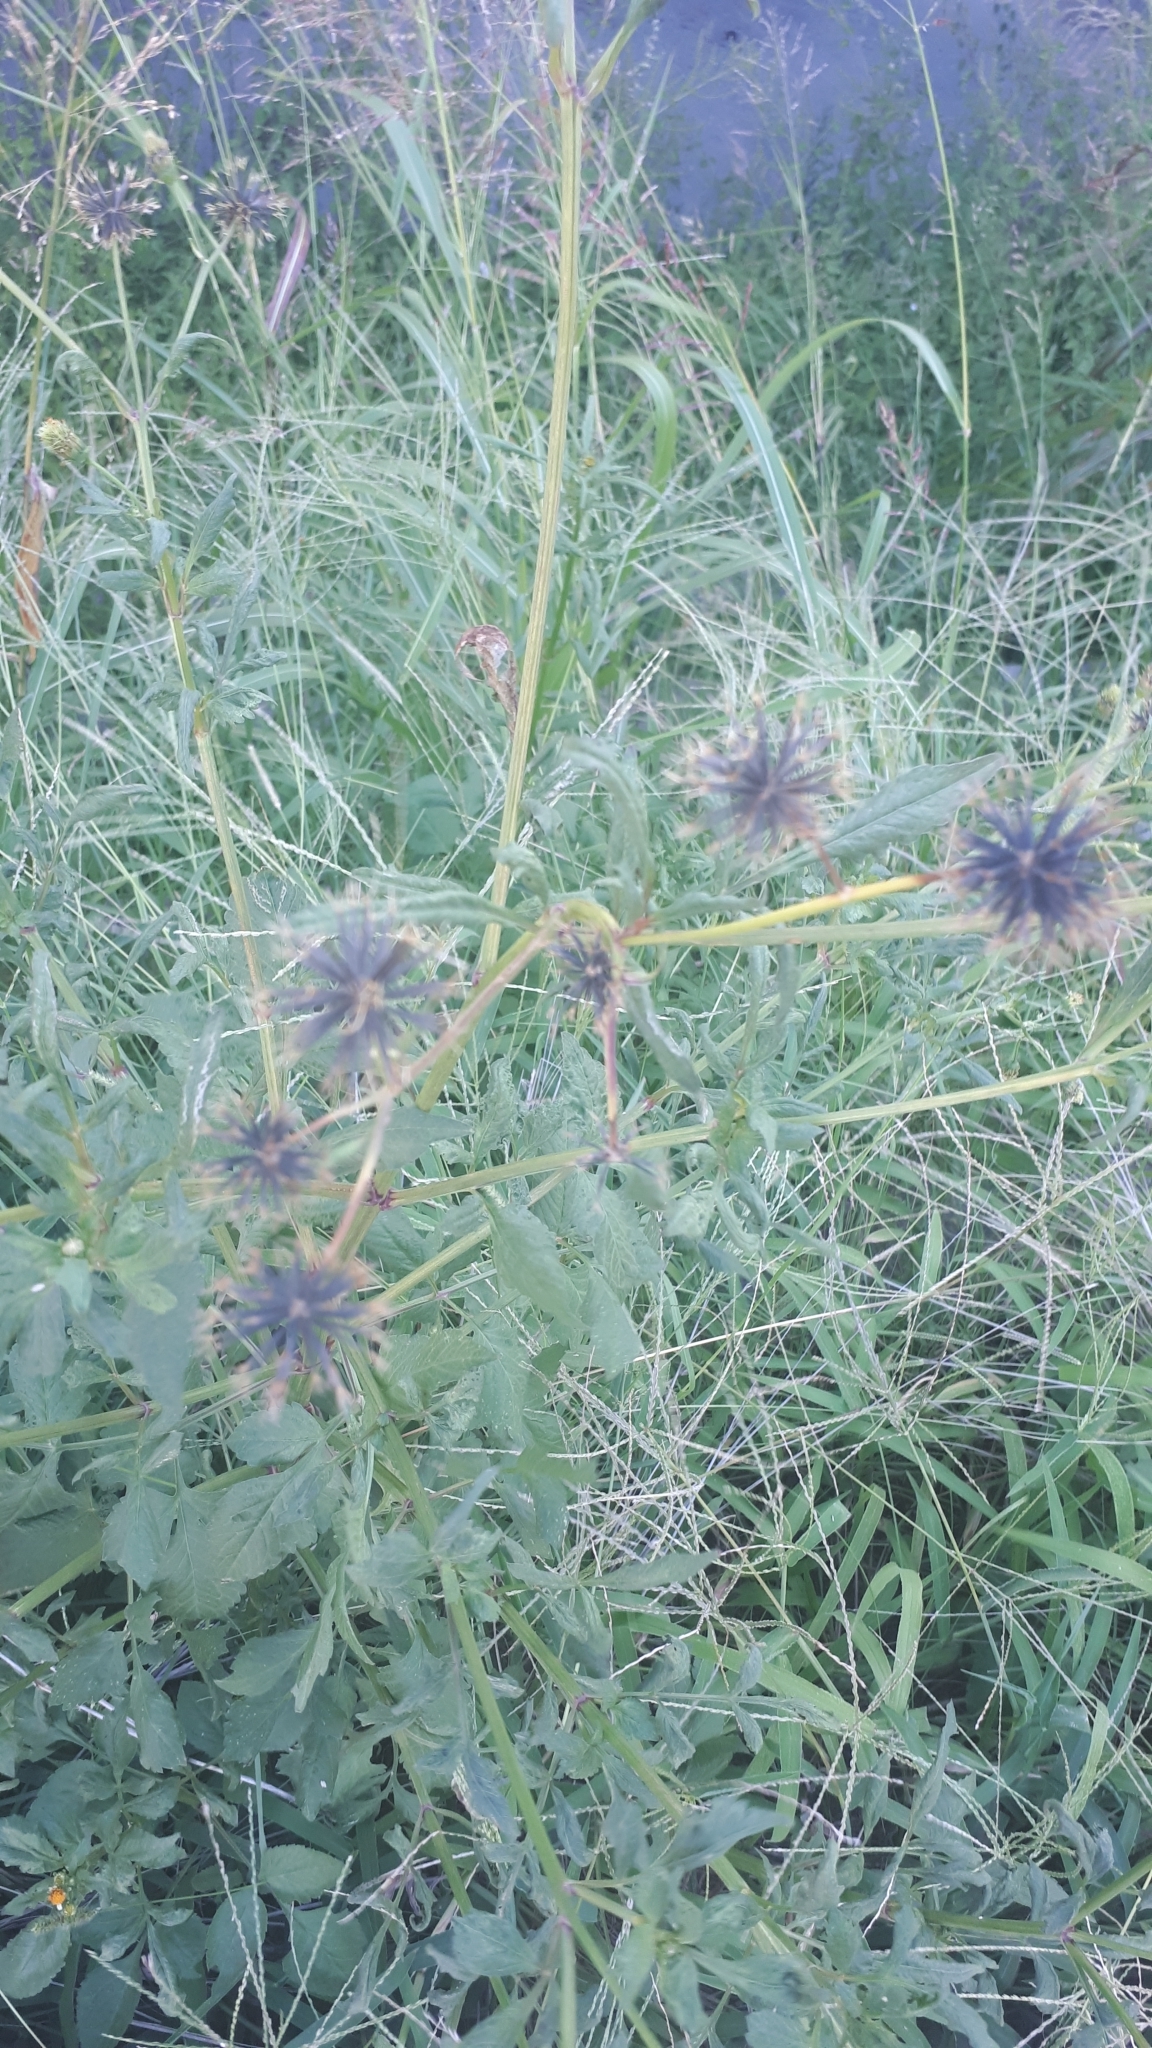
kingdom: Plantae
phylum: Tracheophyta
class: Magnoliopsida
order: Asterales
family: Asteraceae
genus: Bidens
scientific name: Bidens pilosa
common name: Black-jack
